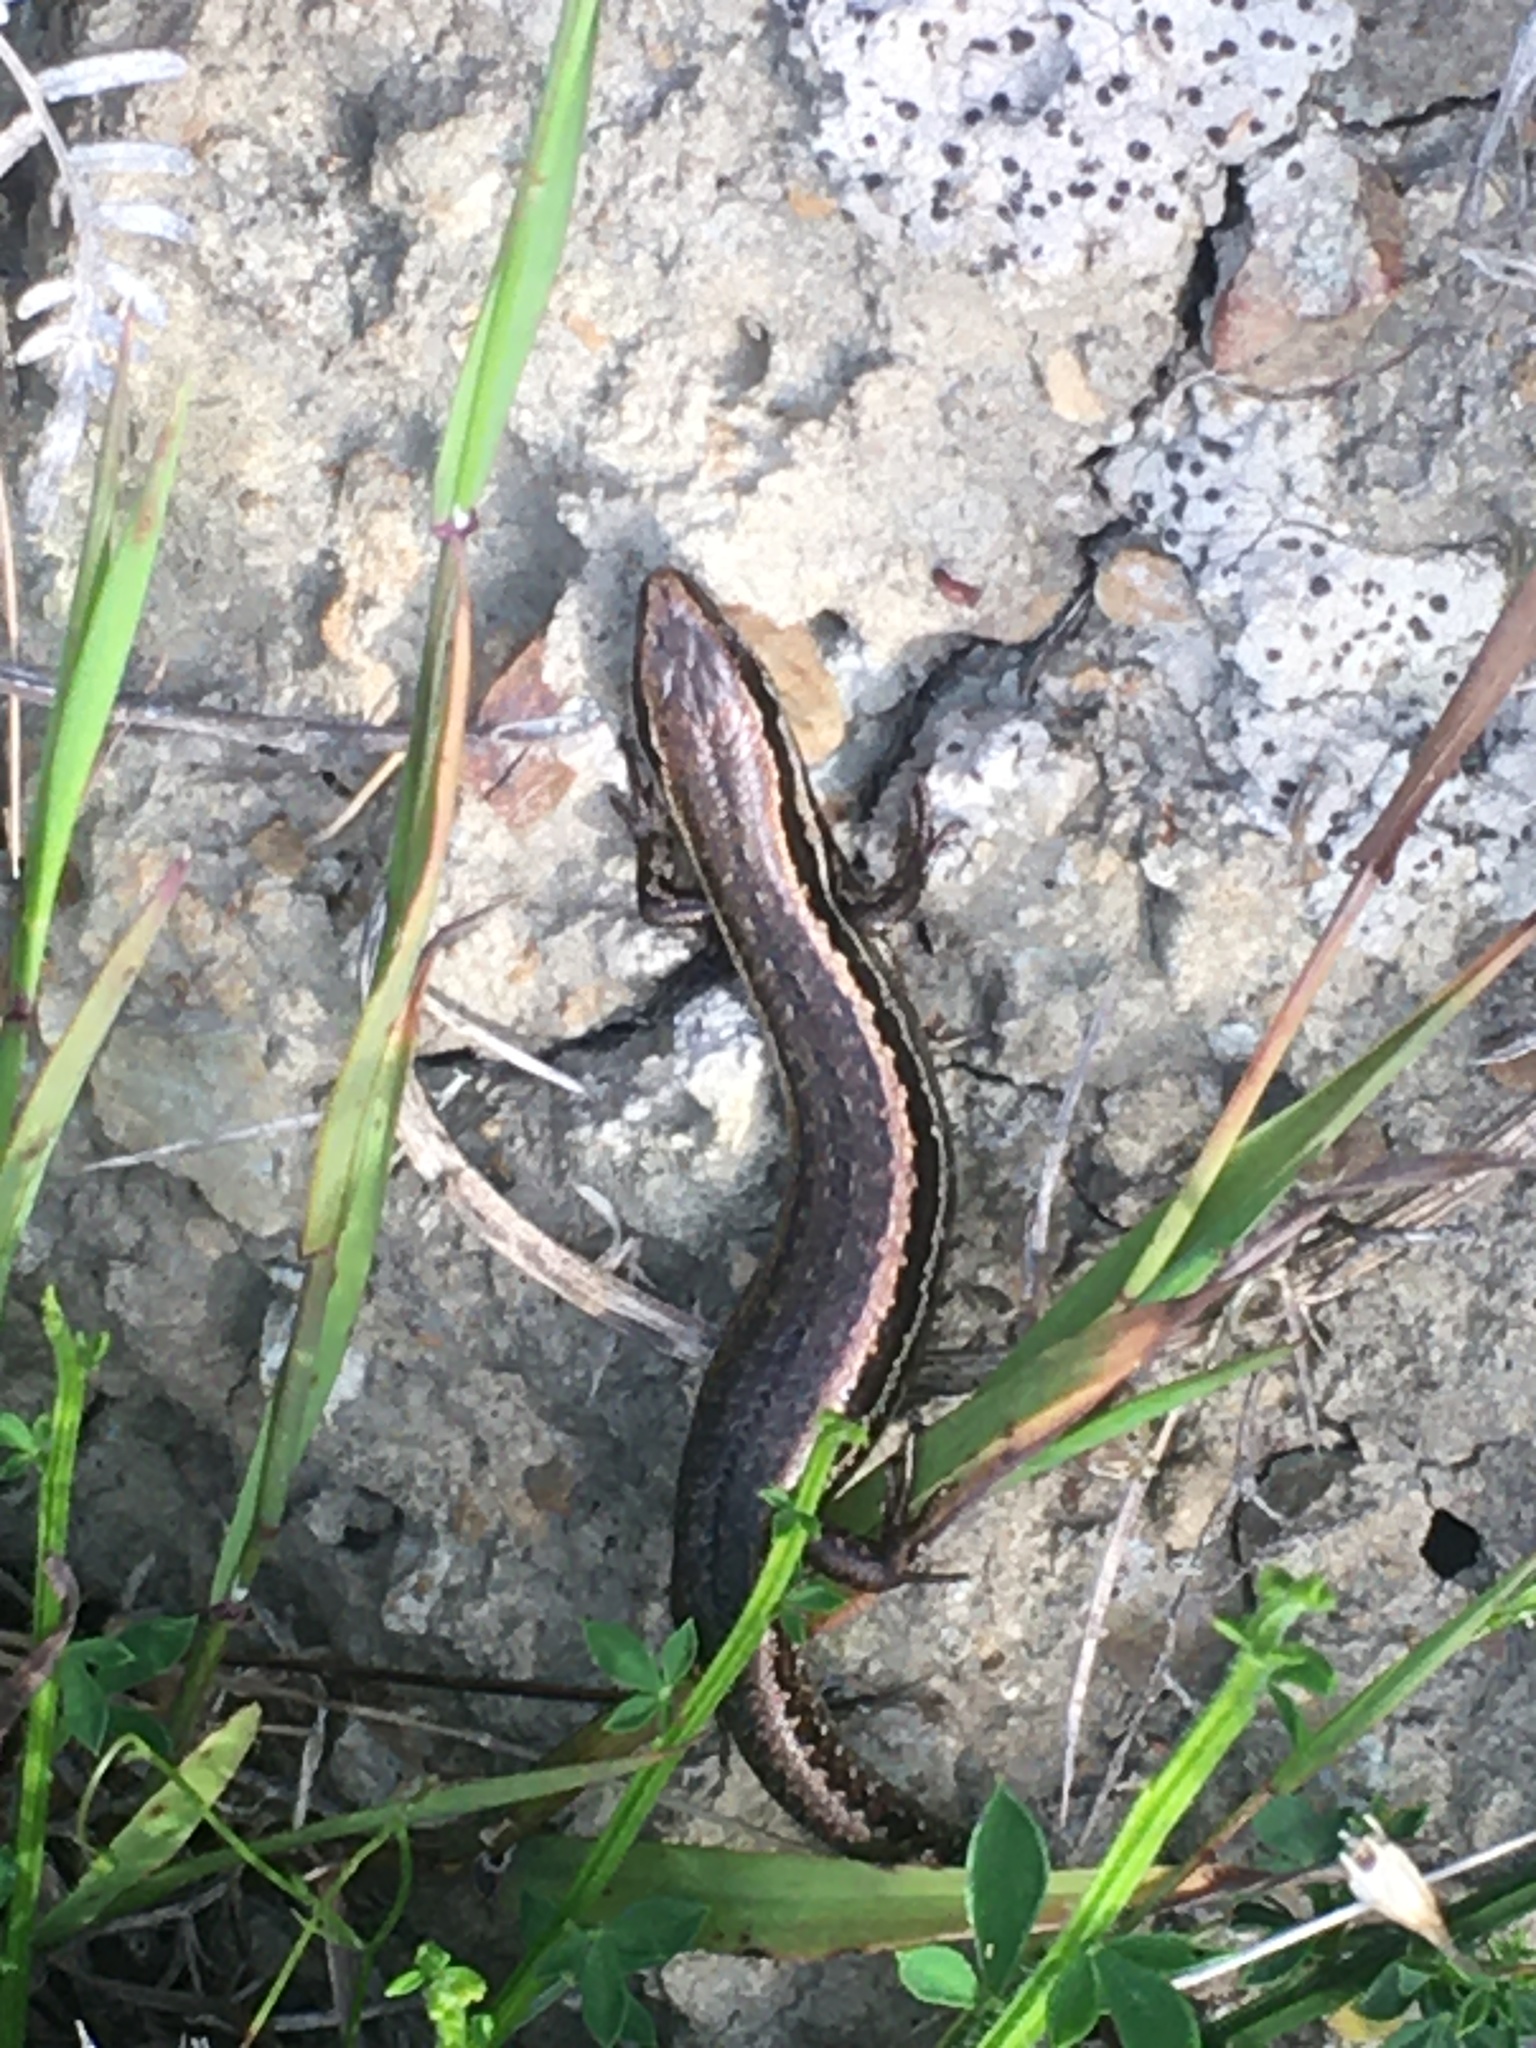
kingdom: Animalia
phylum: Chordata
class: Squamata
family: Scincidae
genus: Oligosoma
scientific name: Oligosoma polychroma
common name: Common new zealand skink
